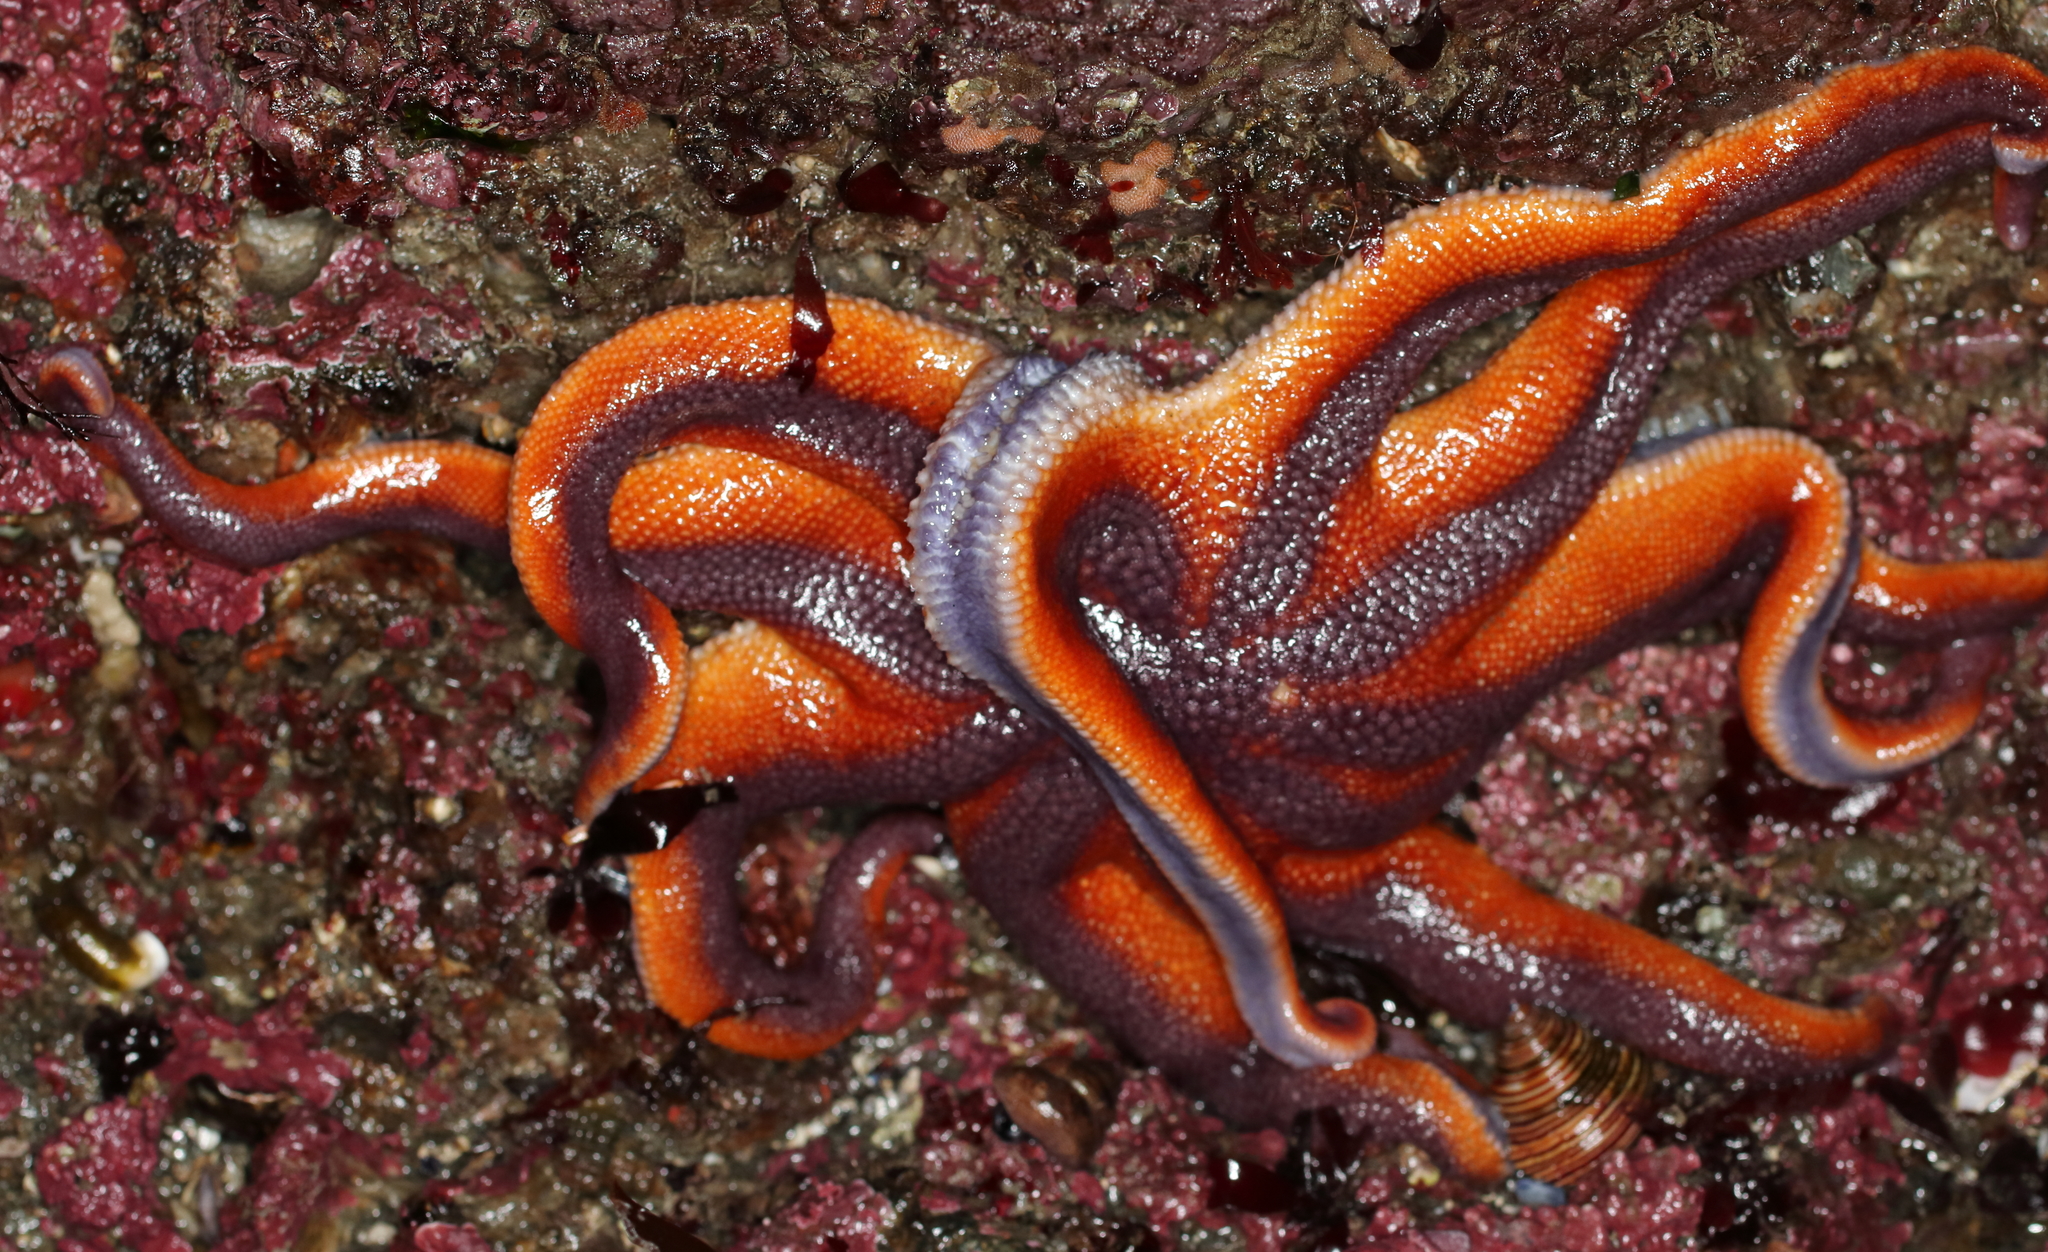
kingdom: Animalia
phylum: Echinodermata
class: Asteroidea
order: Valvatida
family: Solasteridae
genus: Solaster
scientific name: Solaster stimpsoni
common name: Orange sun star
